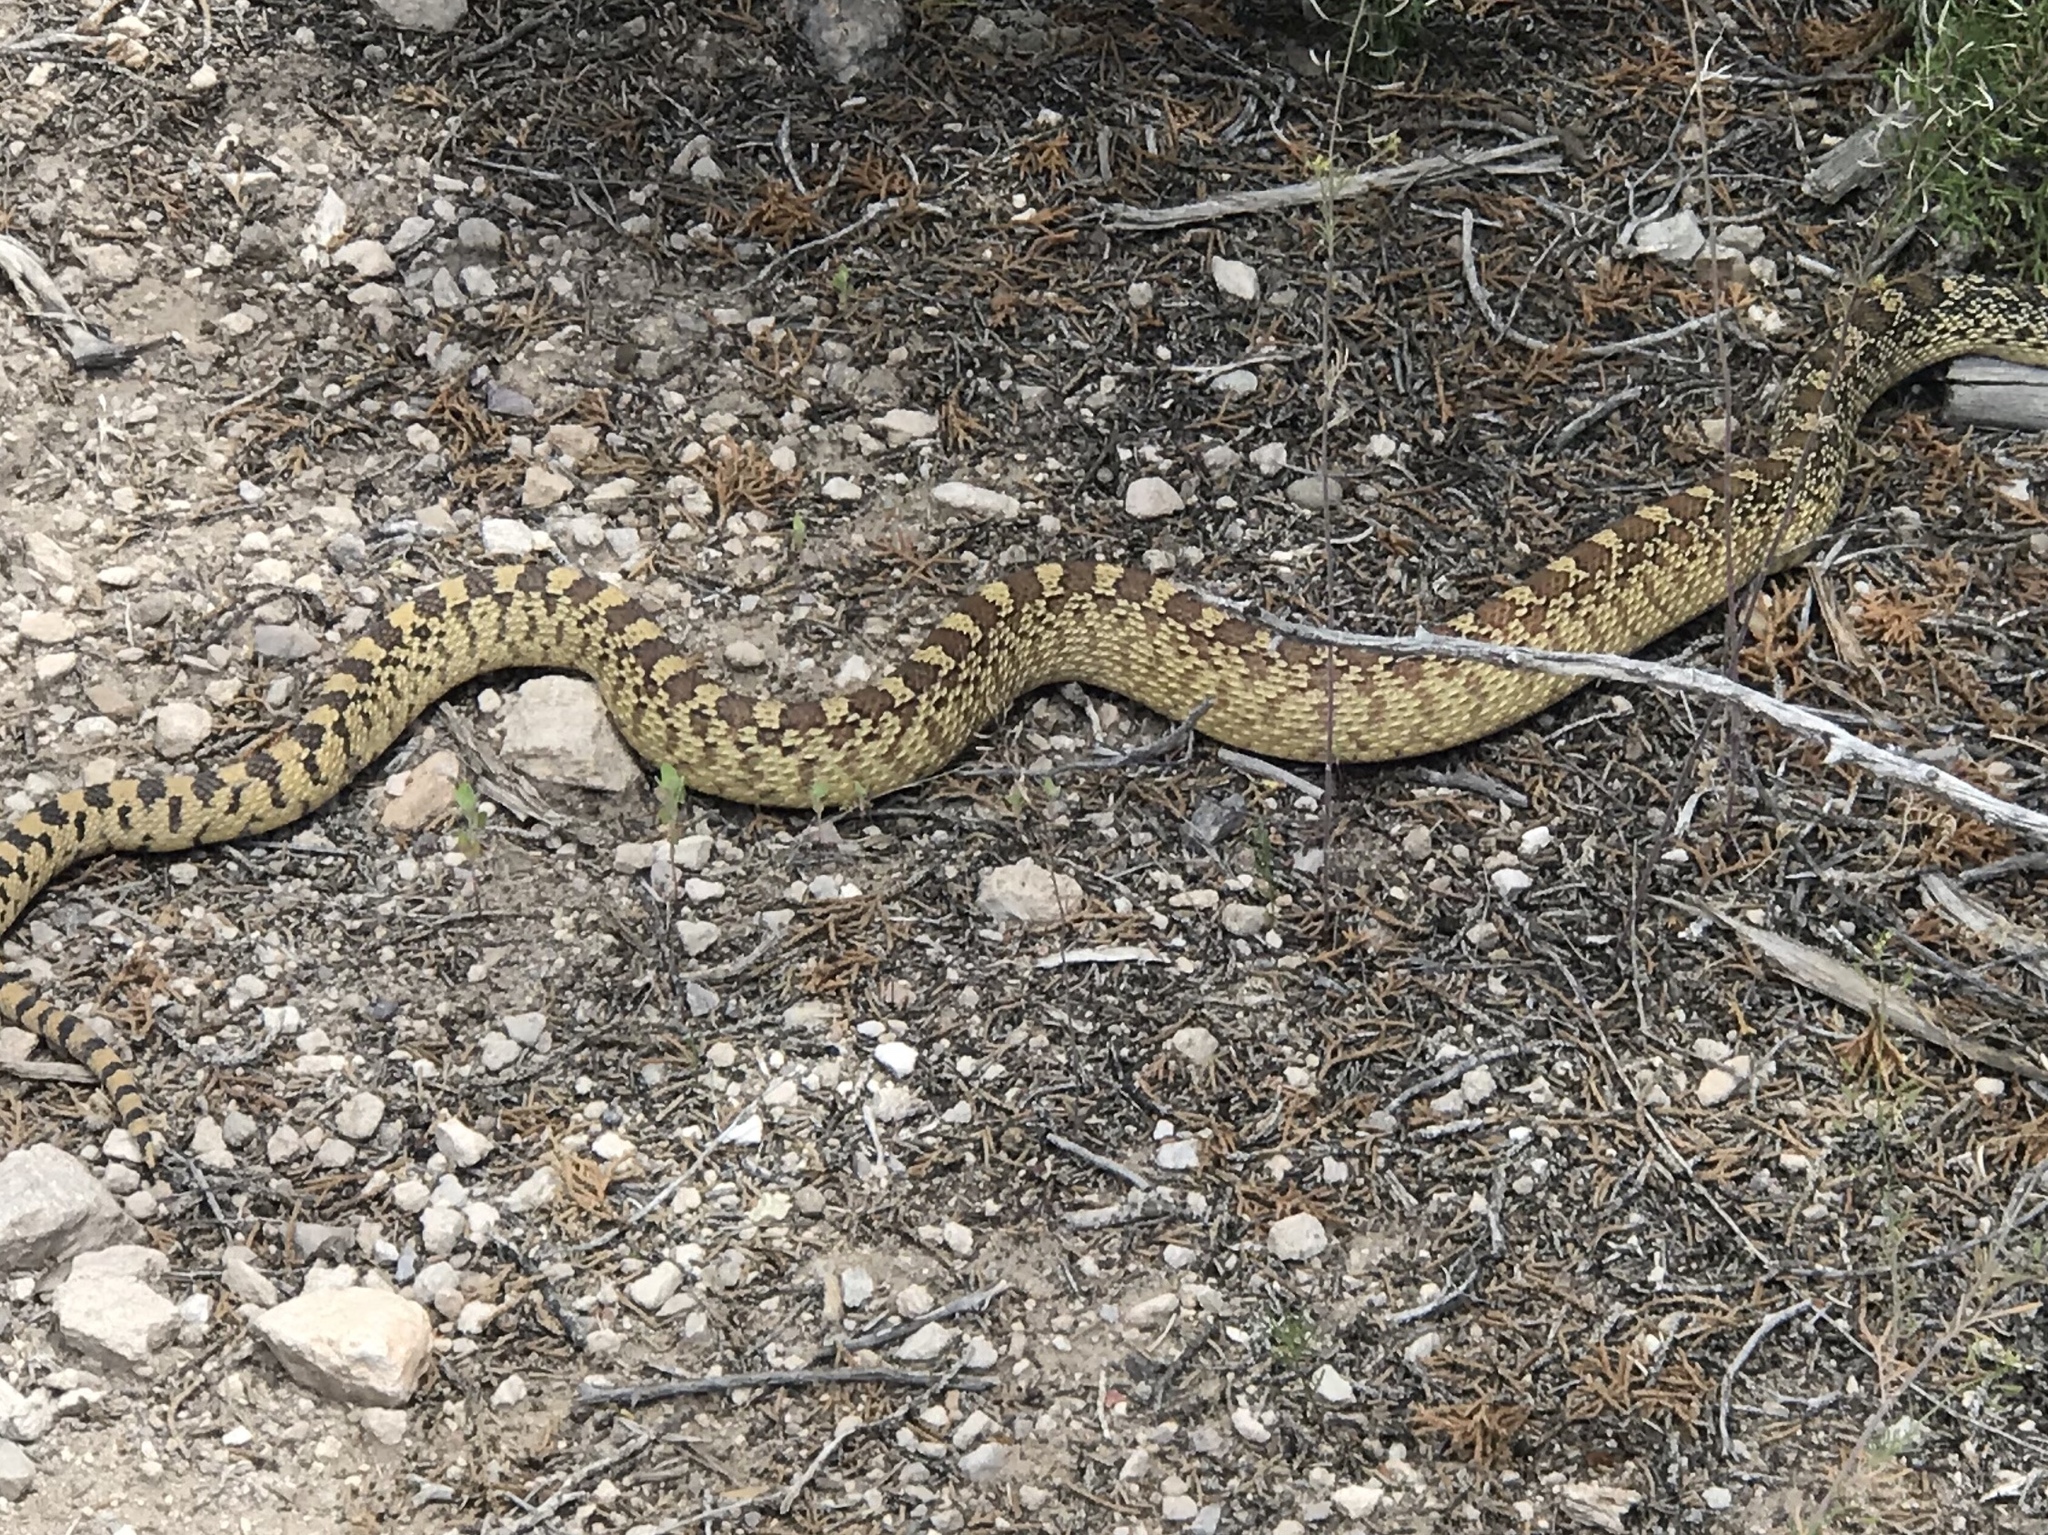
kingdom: Animalia
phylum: Chordata
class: Squamata
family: Colubridae
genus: Pituophis
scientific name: Pituophis catenifer
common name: Gopher snake
